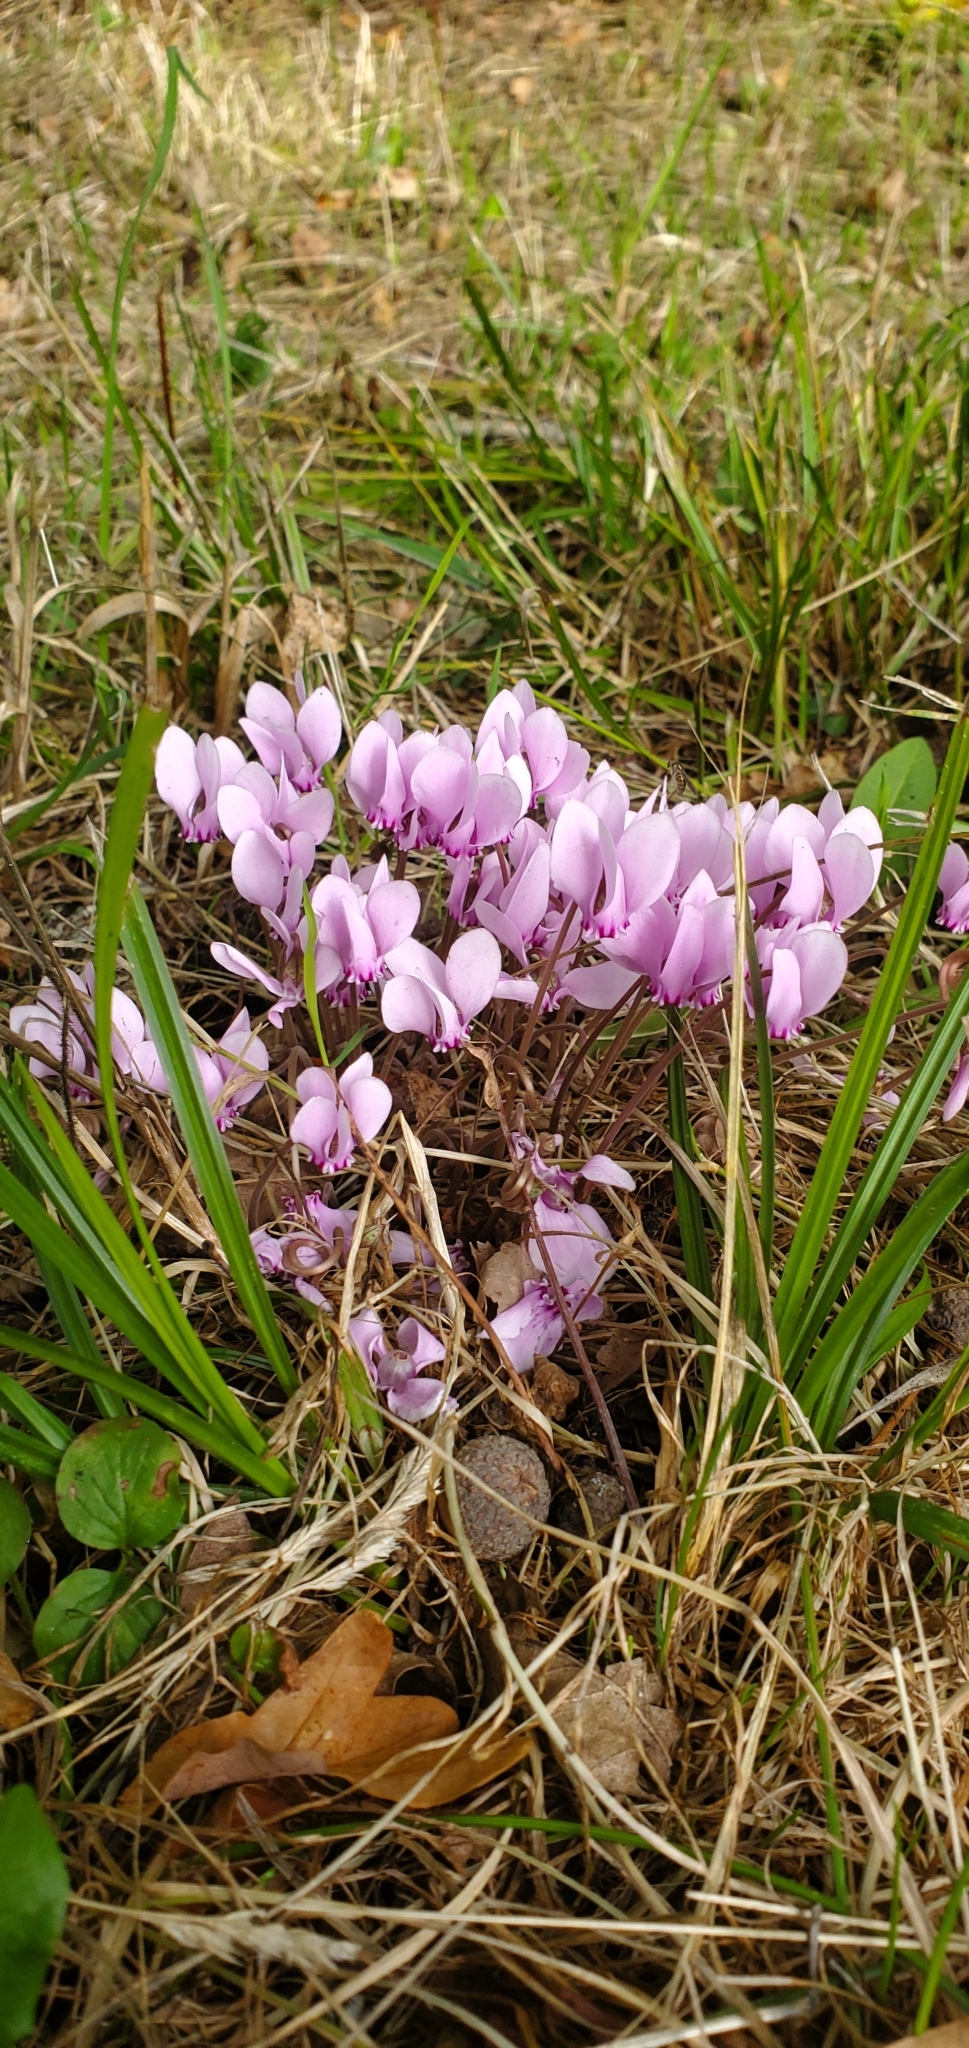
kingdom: Plantae
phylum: Tracheophyta
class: Magnoliopsida
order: Ericales
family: Primulaceae
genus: Cyclamen
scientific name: Cyclamen hederifolium
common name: Sowbread
